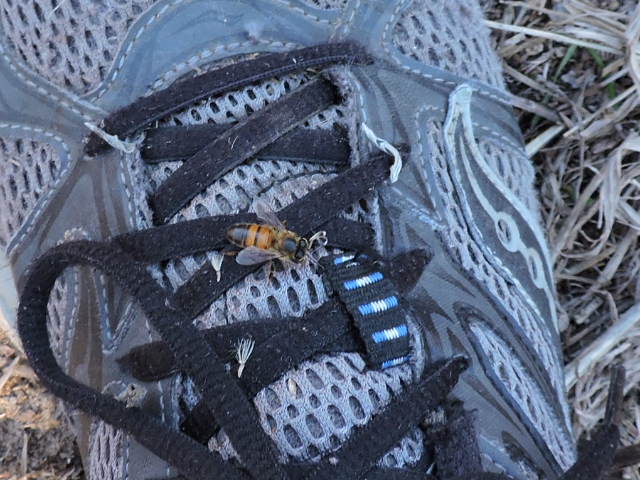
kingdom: Animalia
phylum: Arthropoda
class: Insecta
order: Hymenoptera
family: Apidae
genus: Apis
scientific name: Apis mellifera
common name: Honey bee
